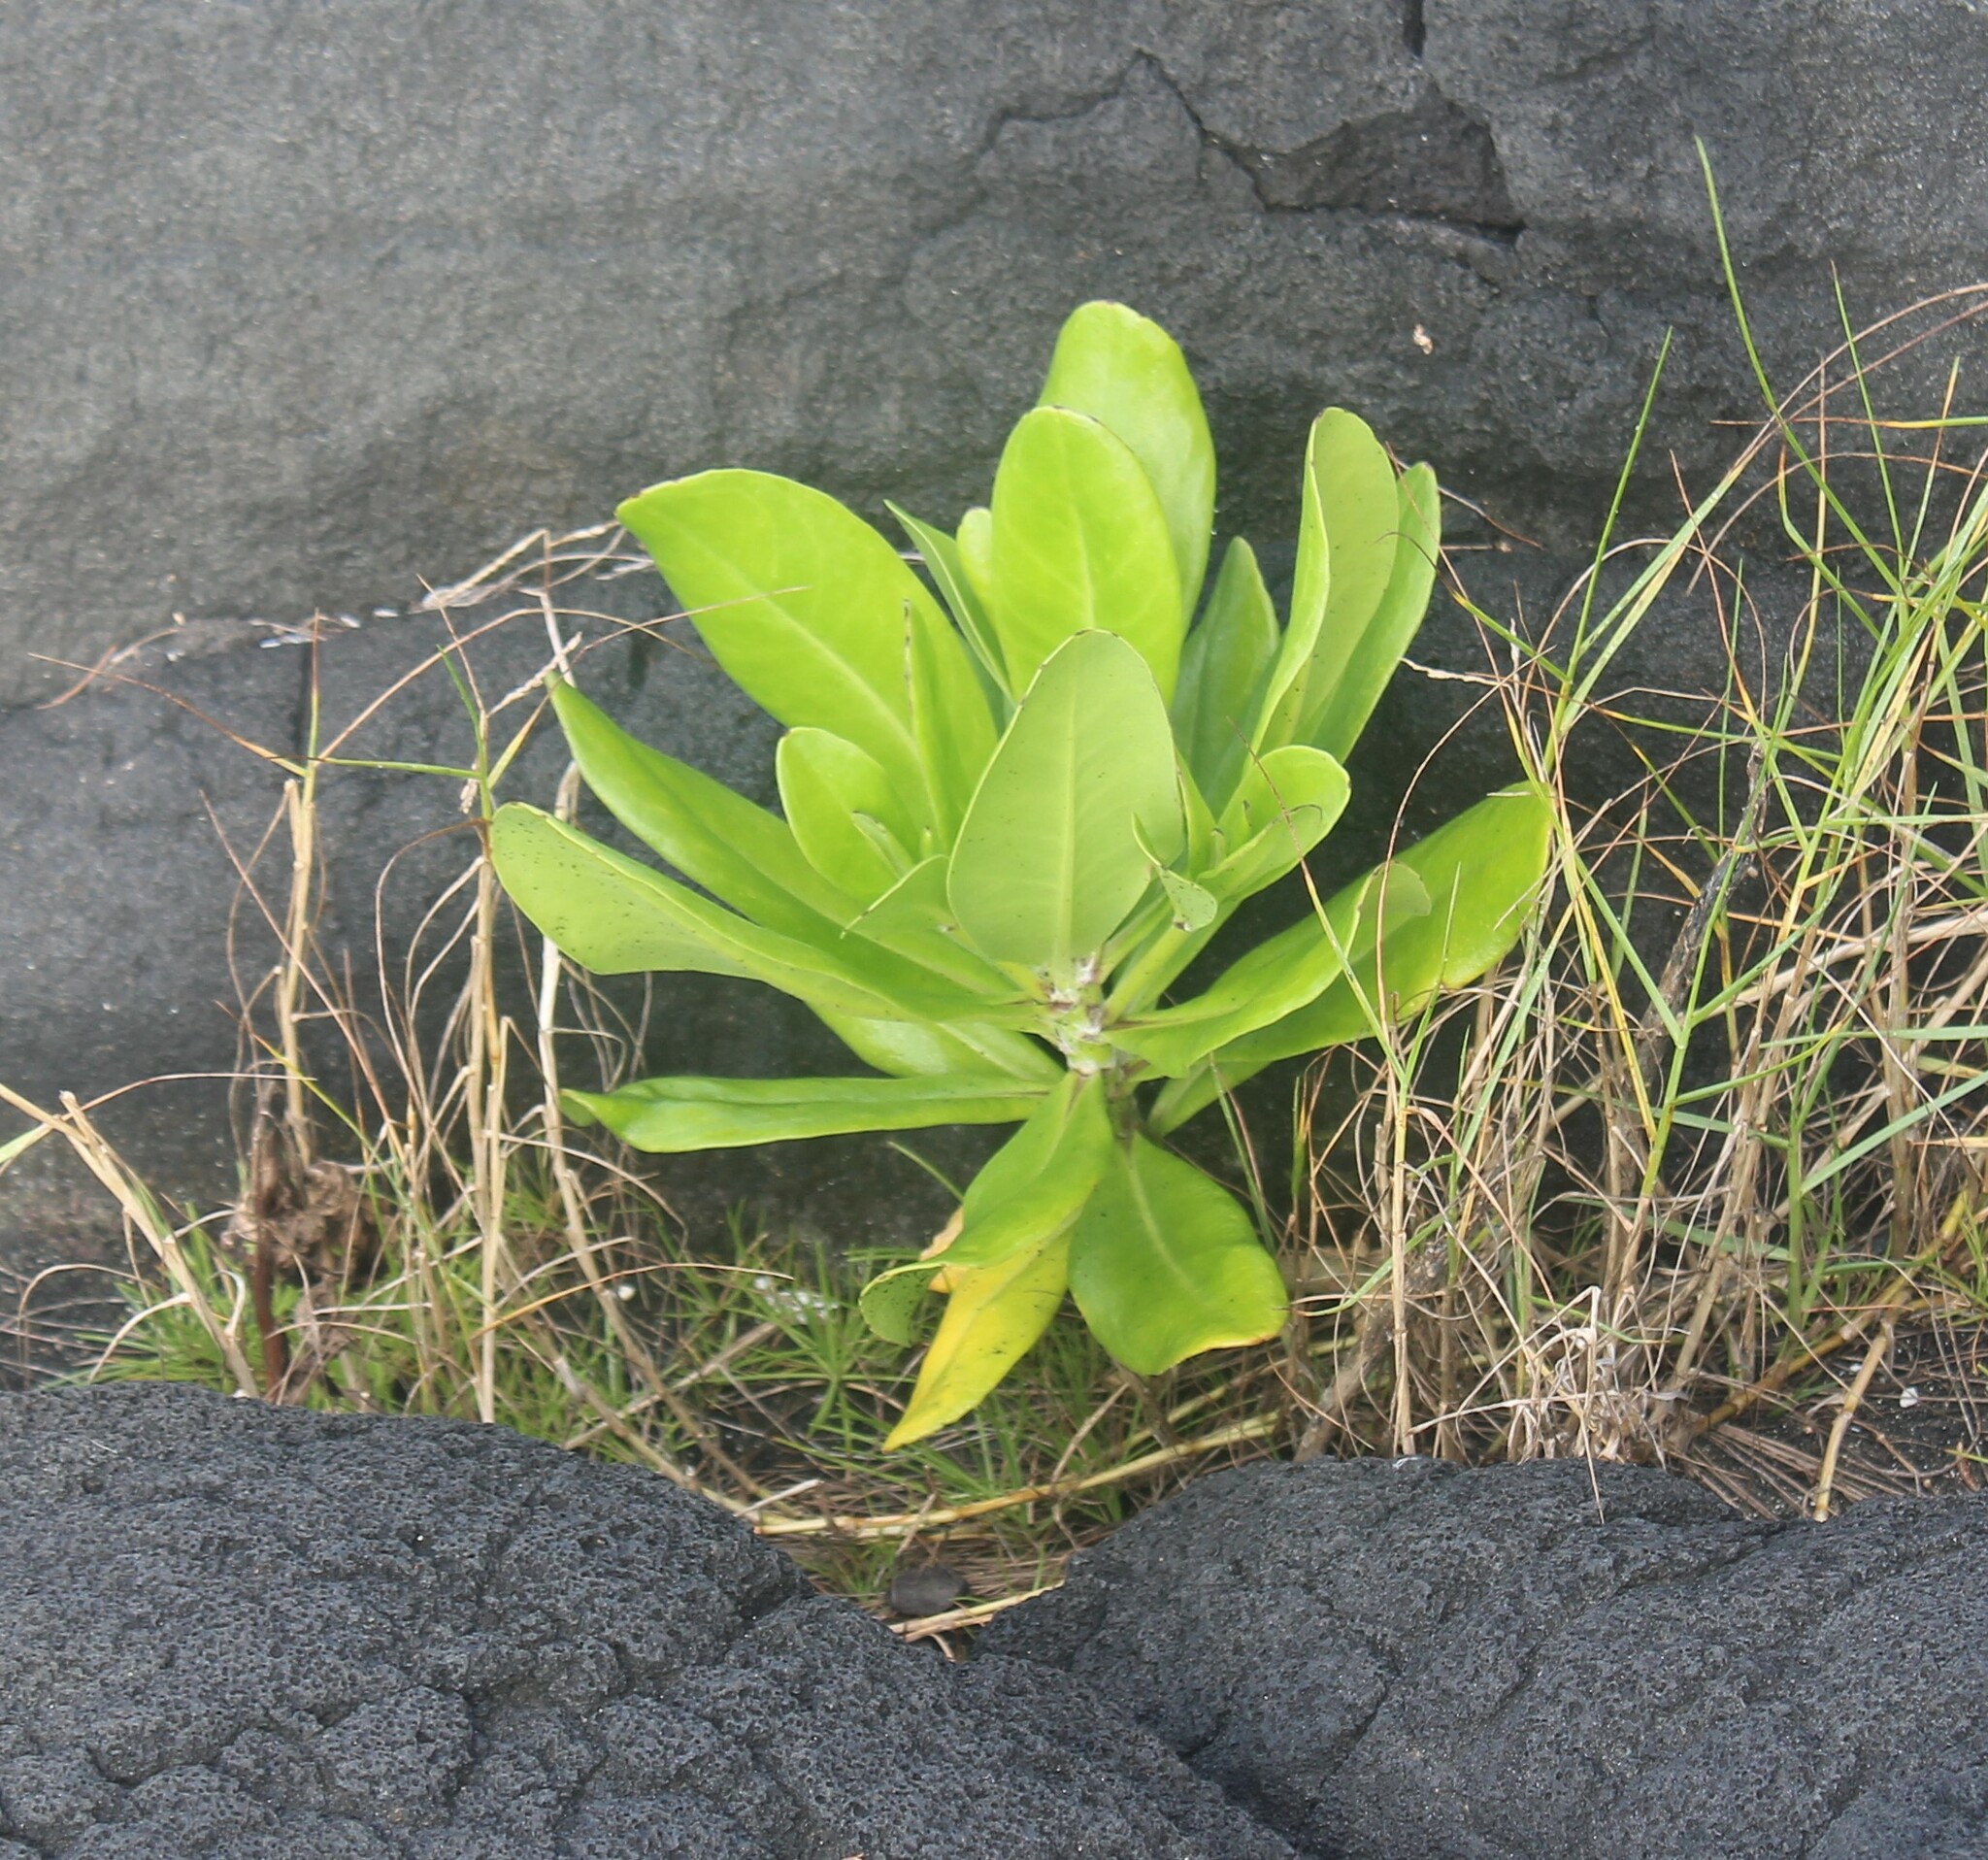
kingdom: Plantae
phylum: Tracheophyta
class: Magnoliopsida
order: Asterales
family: Goodeniaceae
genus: Scaevola
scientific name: Scaevola taccada
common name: Sea lettucetree
